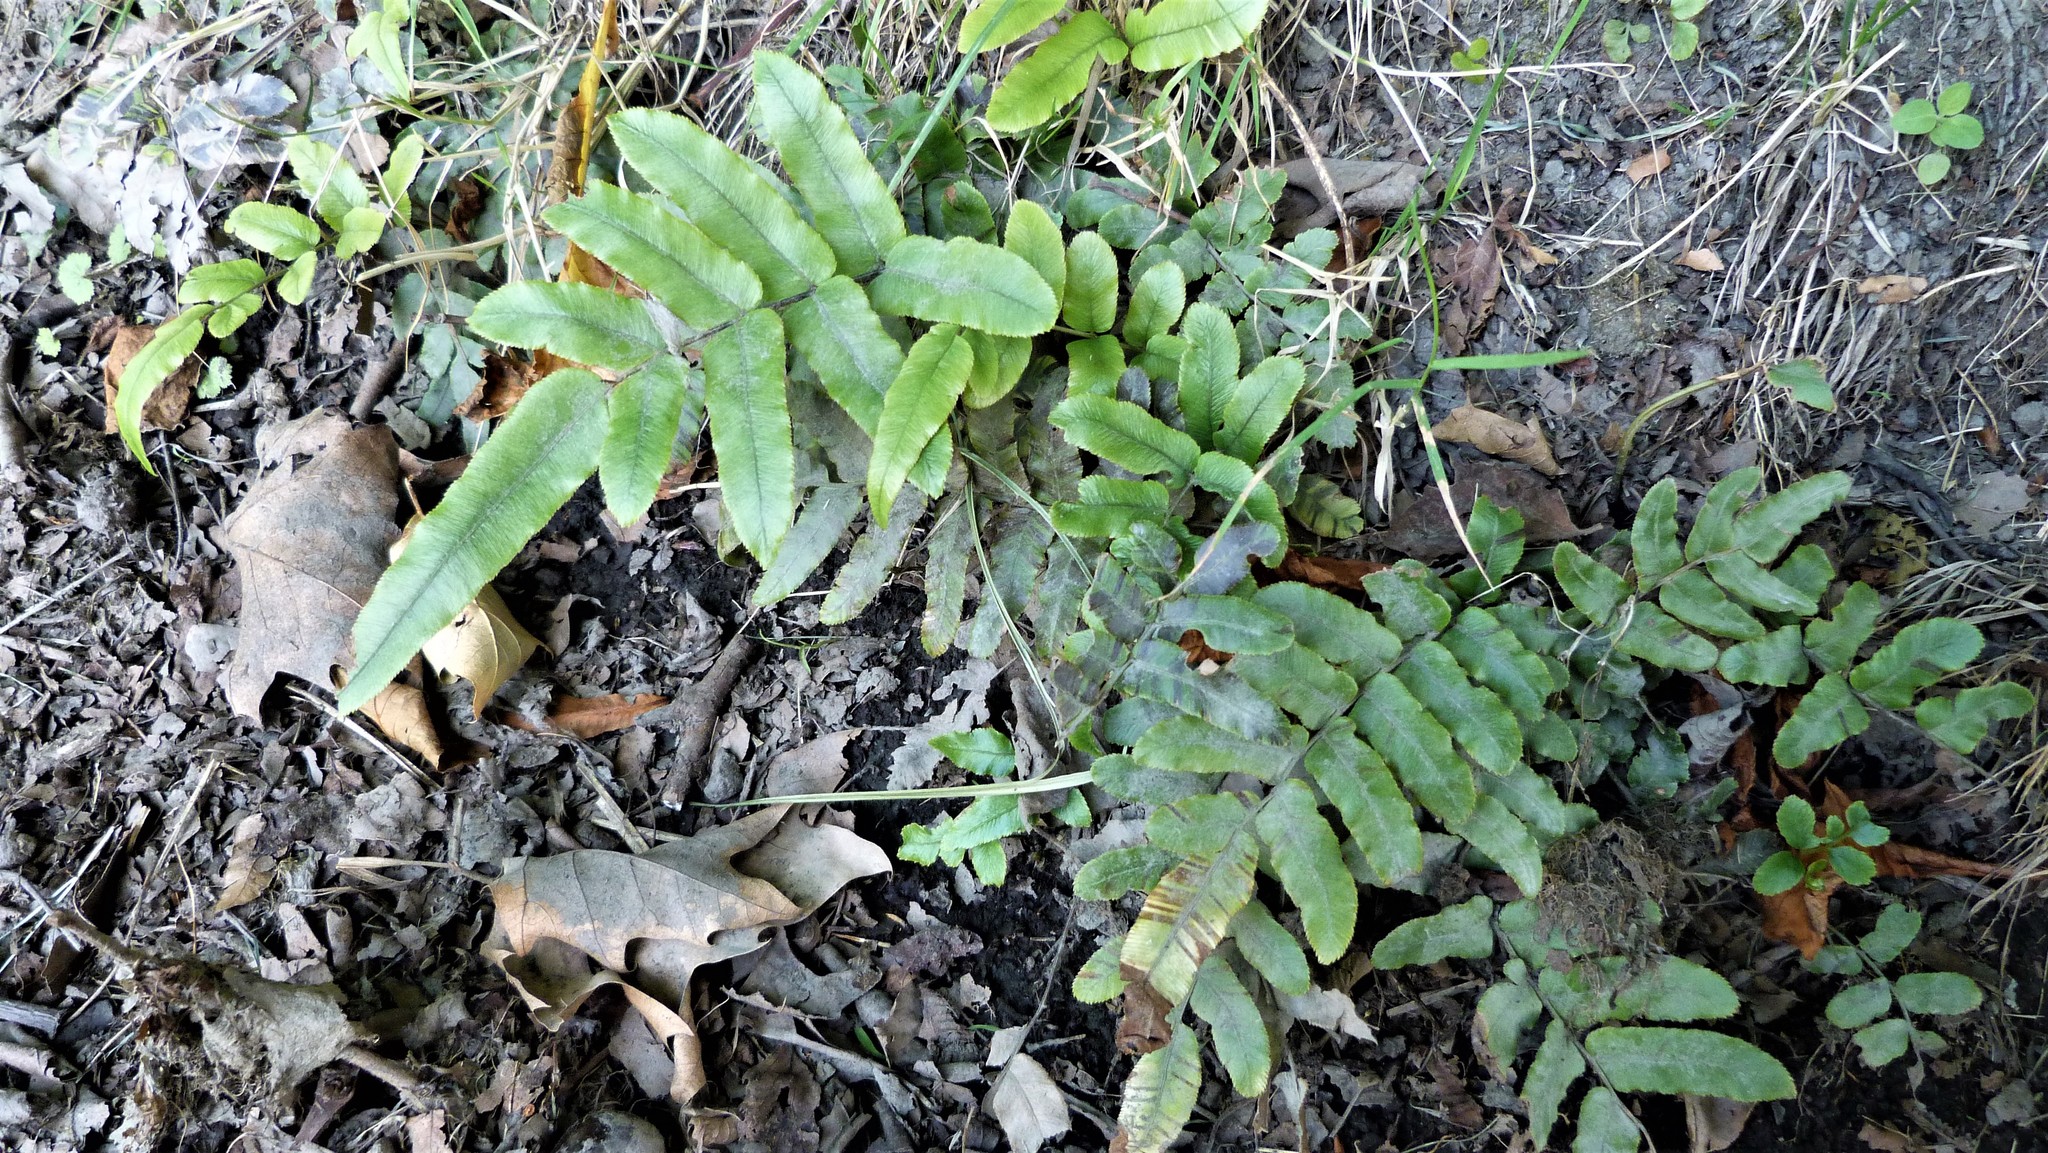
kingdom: Plantae
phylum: Tracheophyta
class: Polypodiopsida
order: Polypodiales
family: Blechnaceae
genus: Parablechnum
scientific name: Parablechnum procerum
